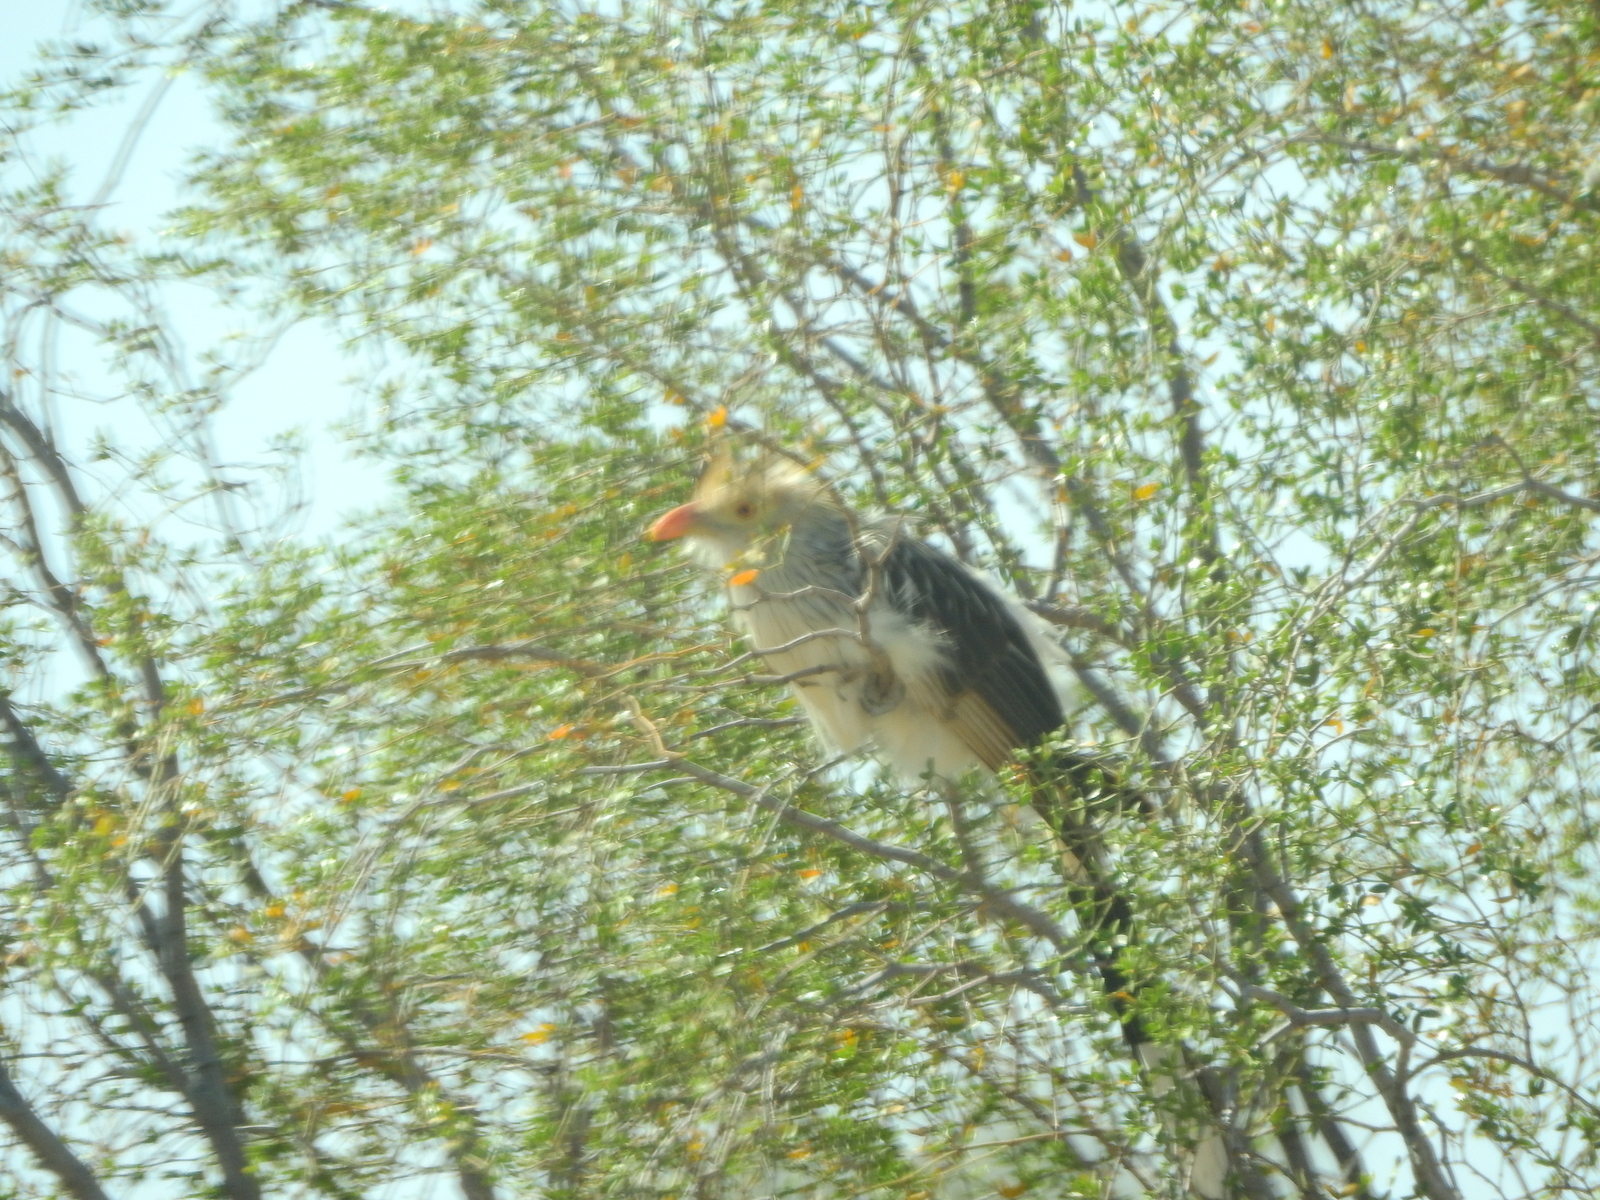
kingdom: Animalia
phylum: Chordata
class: Aves
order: Cuculiformes
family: Cuculidae
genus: Guira
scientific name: Guira guira
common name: Guira cuckoo
